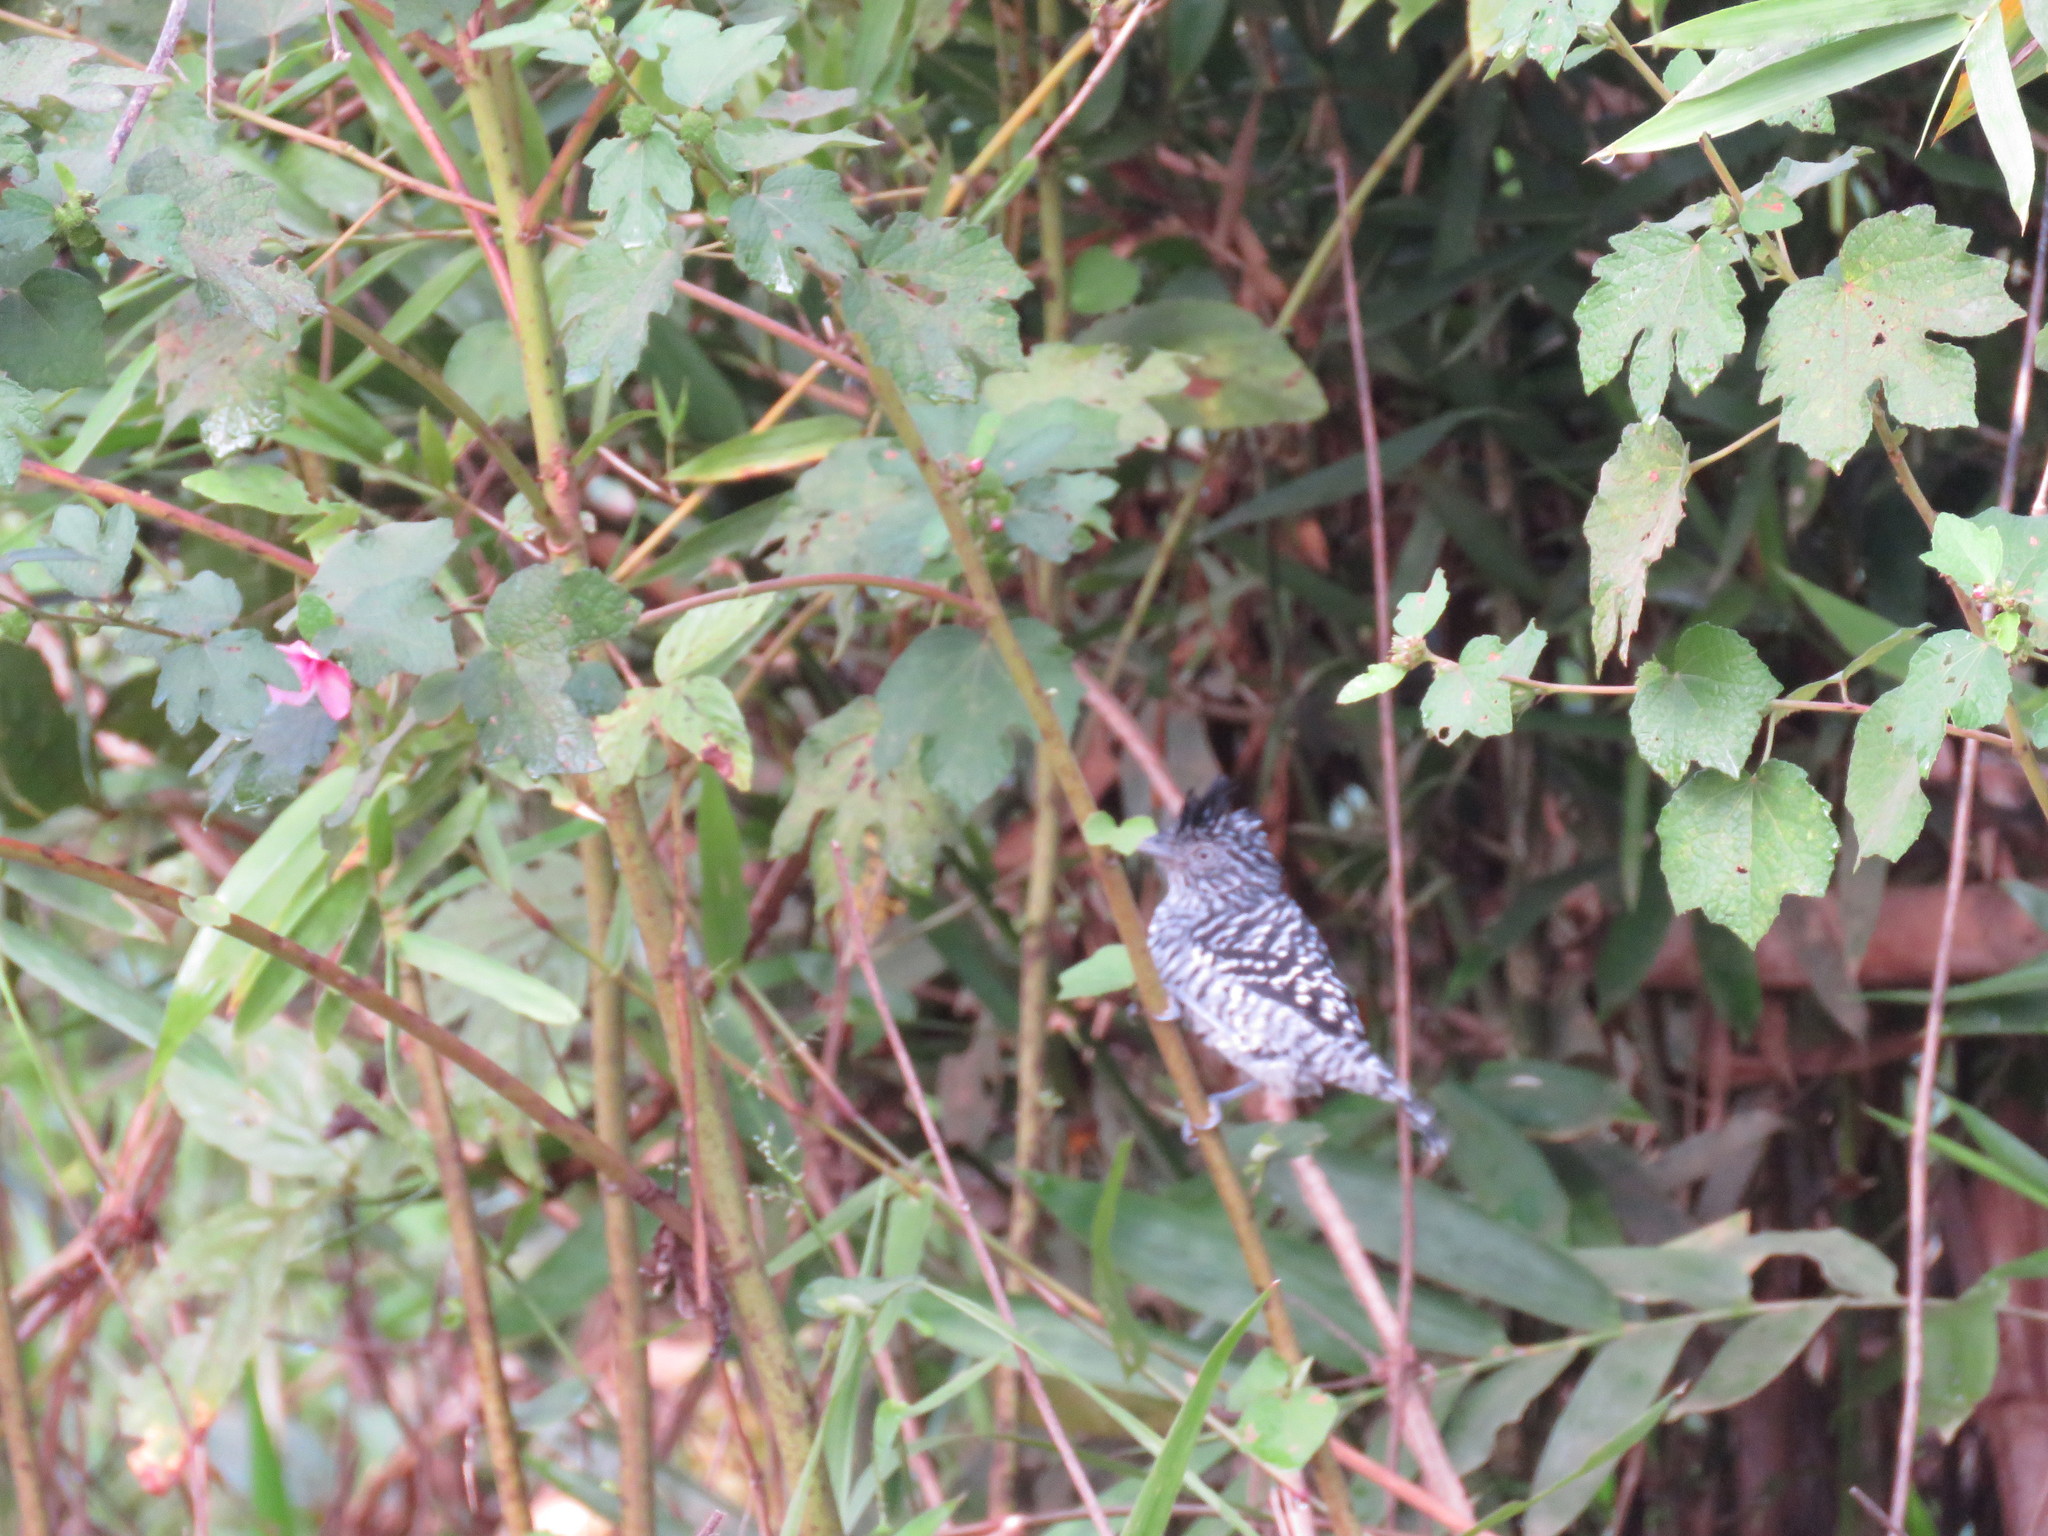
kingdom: Animalia
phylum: Chordata
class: Aves
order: Passeriformes
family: Thamnophilidae
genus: Thamnophilus
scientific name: Thamnophilus doliatus
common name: Barred antshrike
